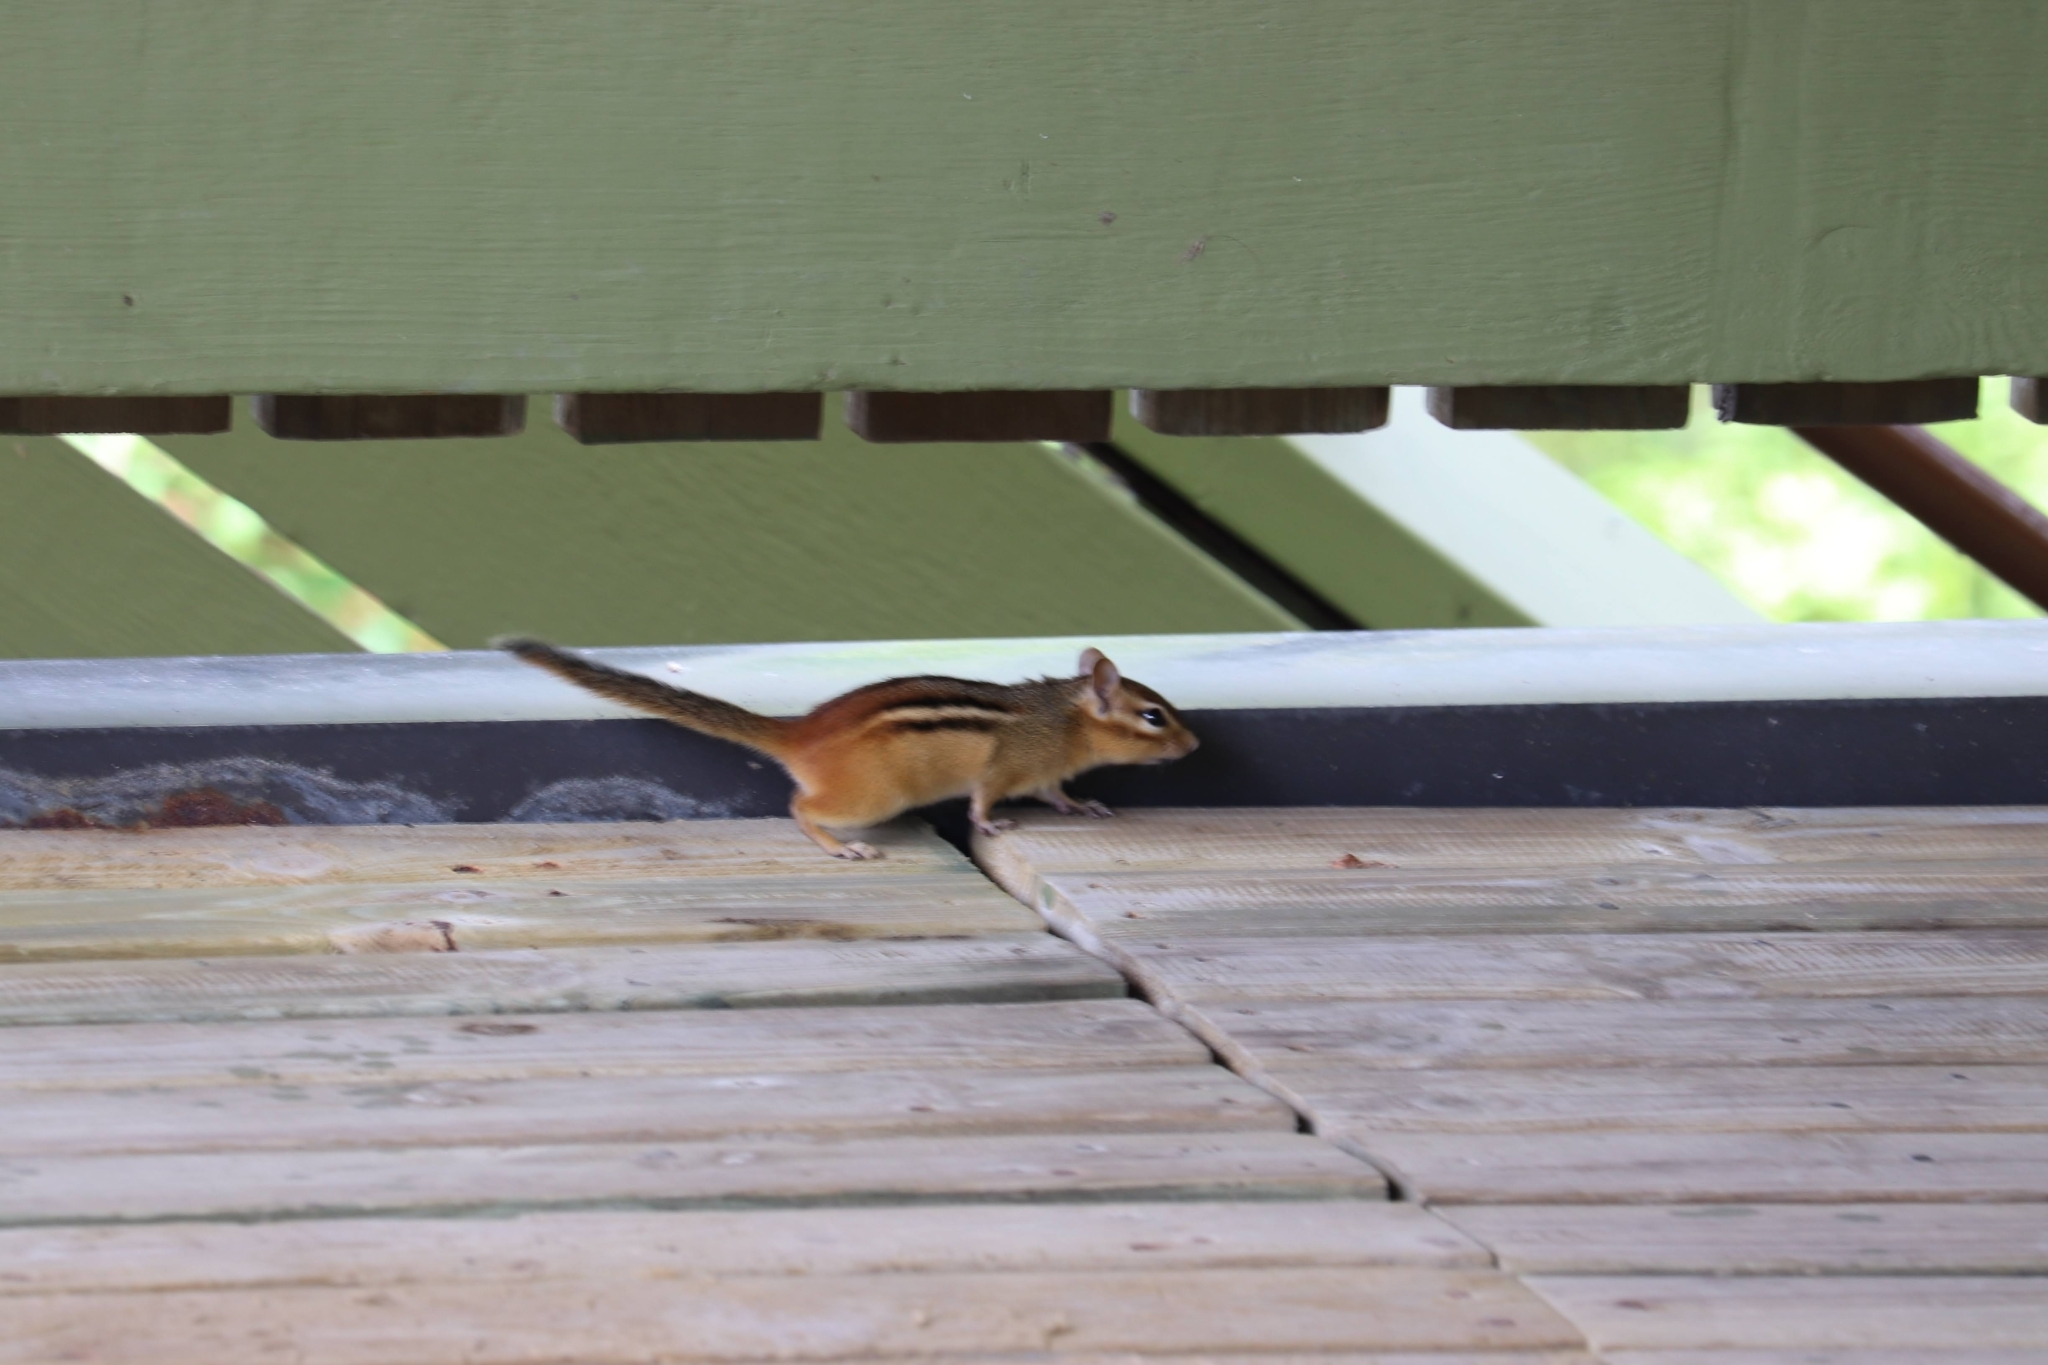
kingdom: Animalia
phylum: Chordata
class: Mammalia
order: Rodentia
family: Sciuridae
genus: Tamias
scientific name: Tamias striatus
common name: Eastern chipmunk
